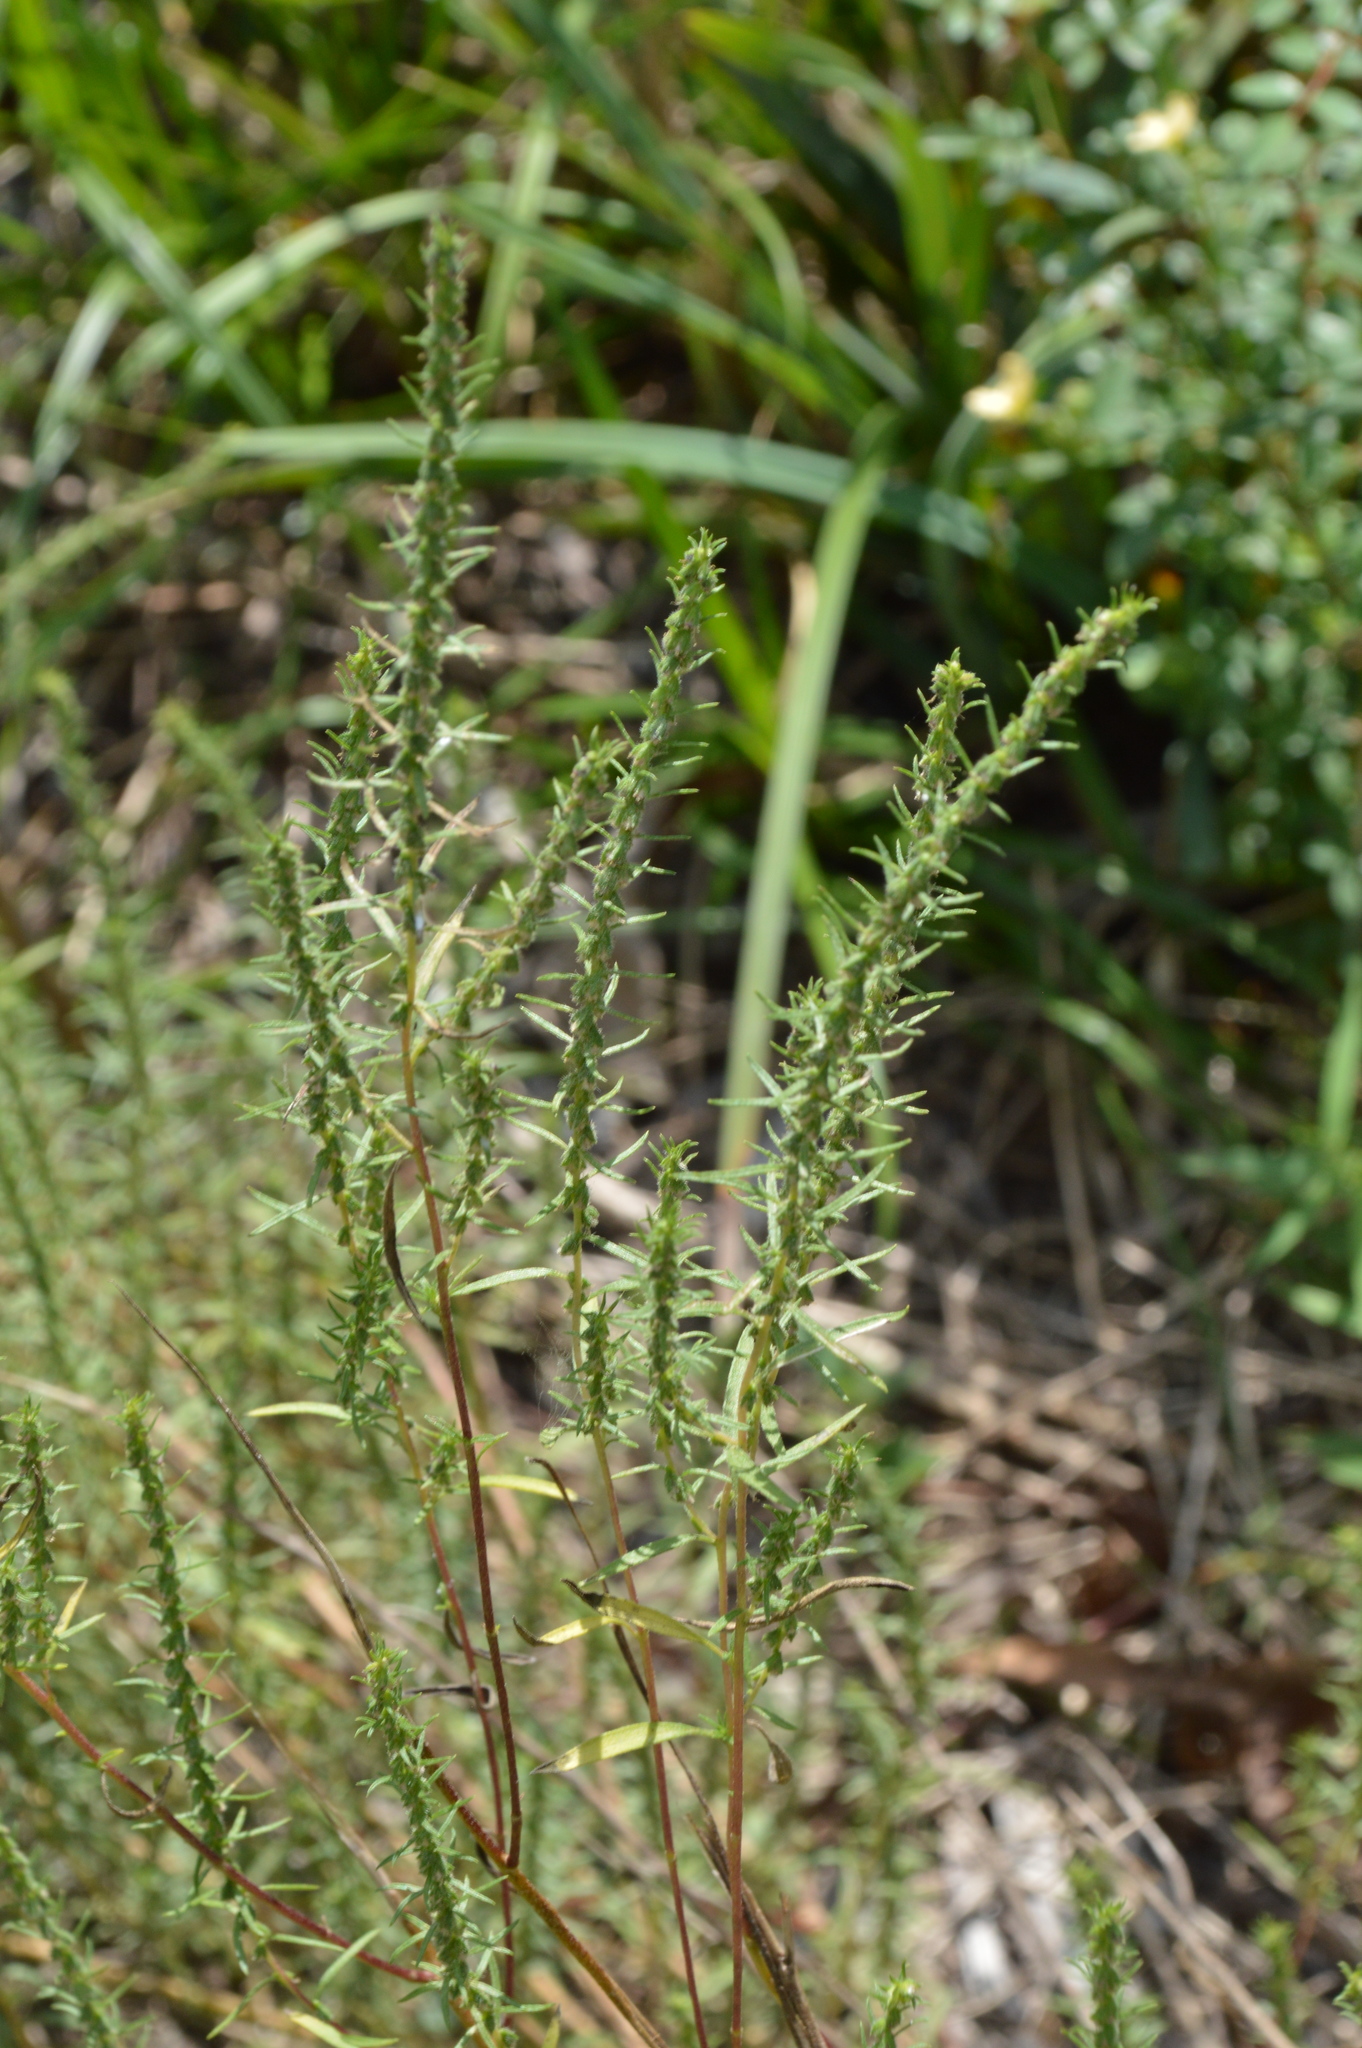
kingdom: Plantae
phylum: Tracheophyta
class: Magnoliopsida
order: Asterales
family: Asteraceae
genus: Iva
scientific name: Iva asperifolia
